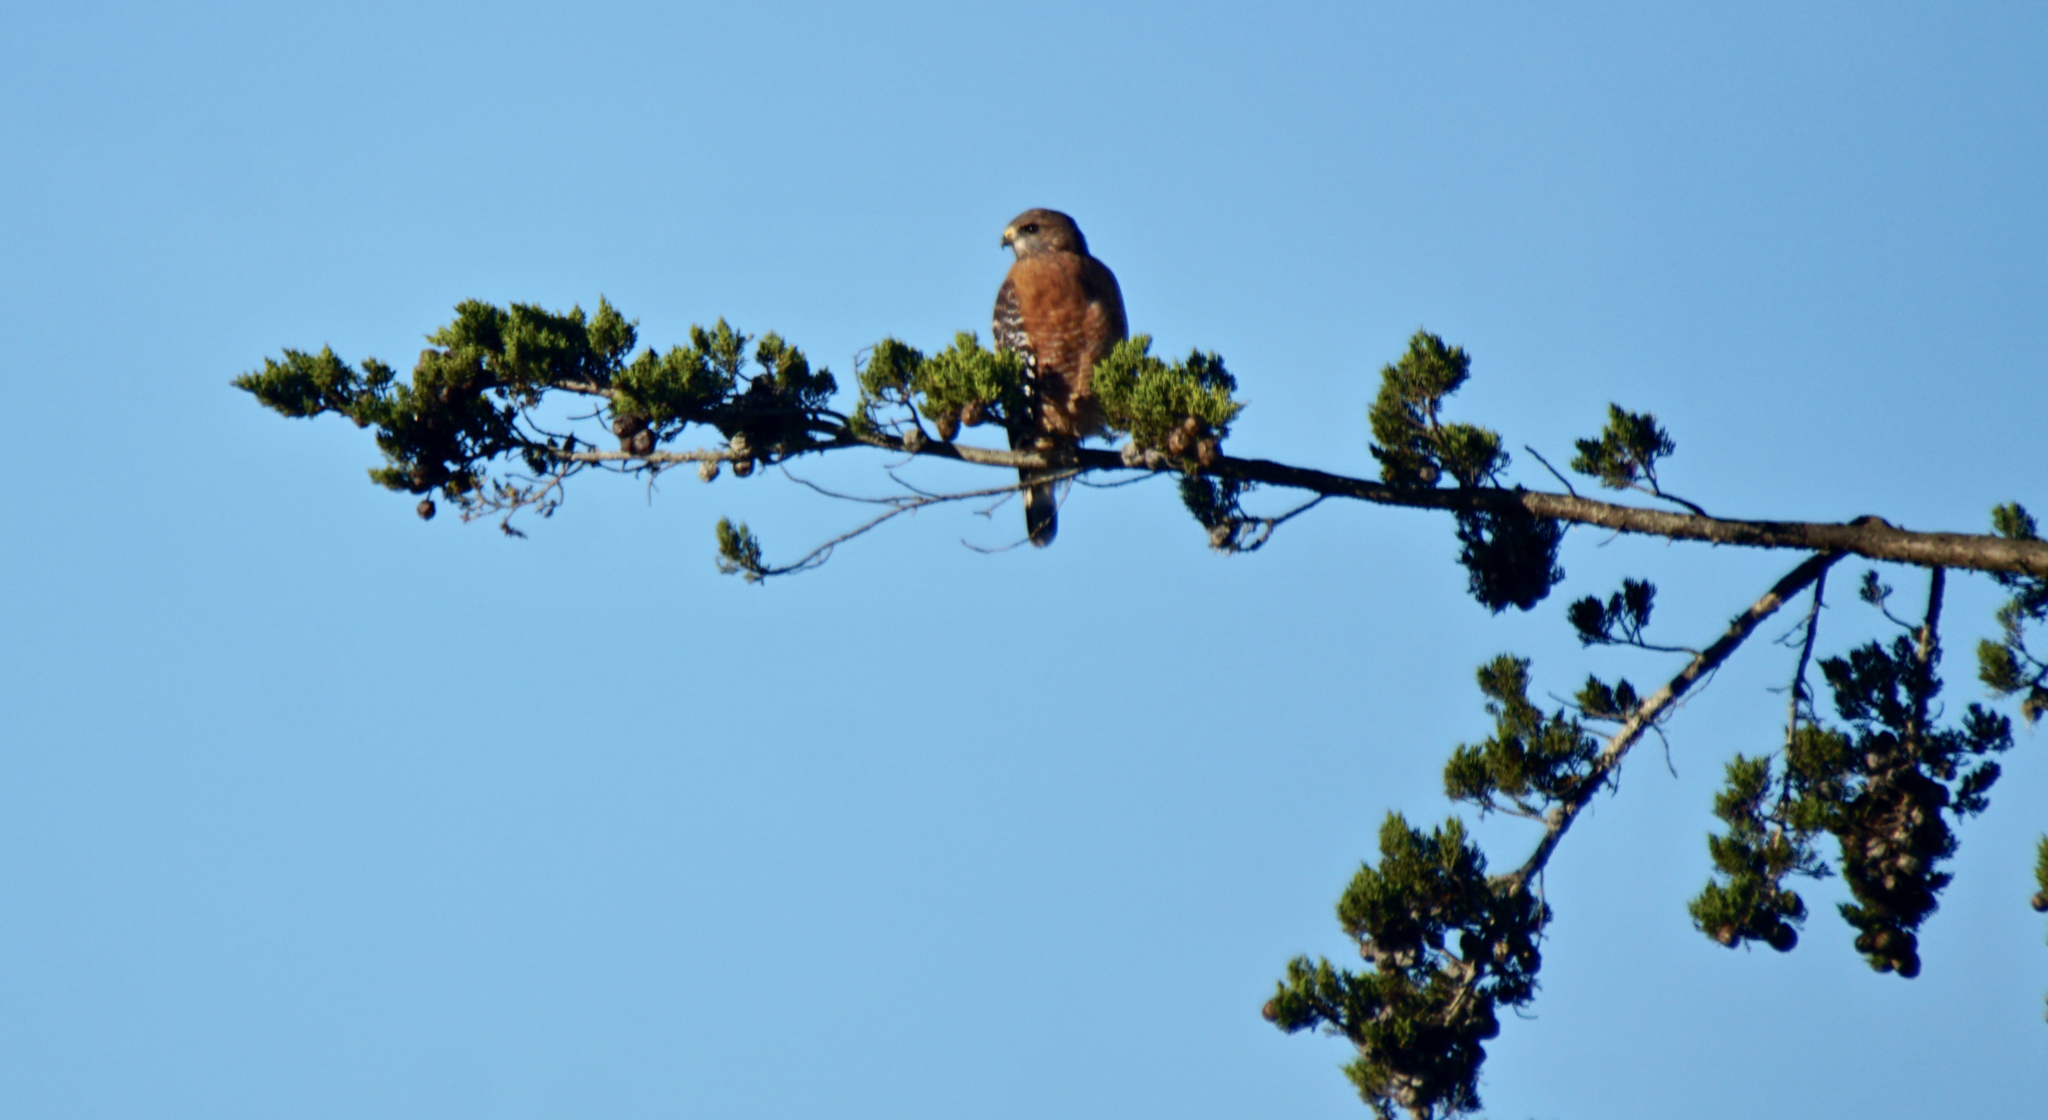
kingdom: Animalia
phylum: Chordata
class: Aves
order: Accipitriformes
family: Accipitridae
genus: Buteo
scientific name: Buteo lineatus
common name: Red-shouldered hawk
